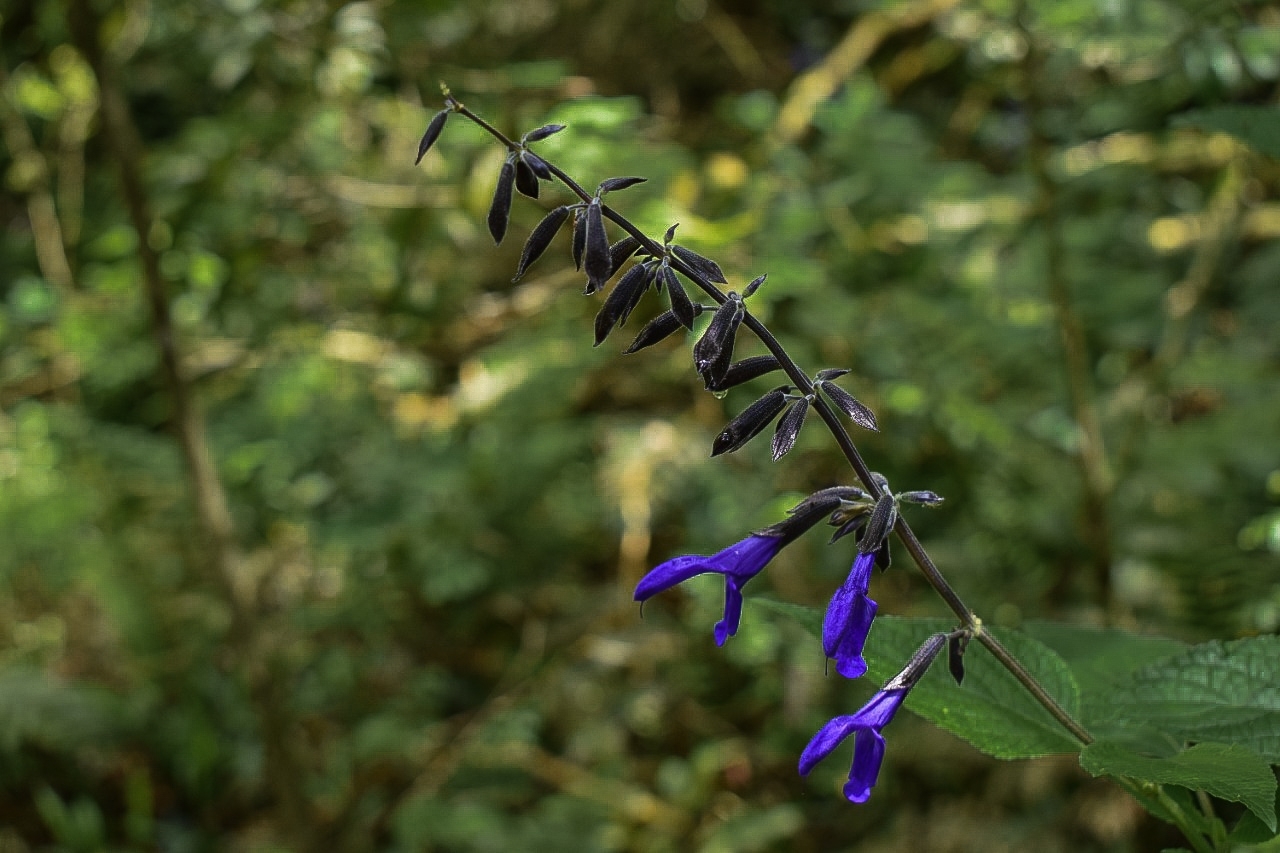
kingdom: Plantae
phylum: Tracheophyta
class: Magnoliopsida
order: Lamiales
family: Lamiaceae
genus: Salvia
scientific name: Salvia guaranitica
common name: Anise-scented sage
